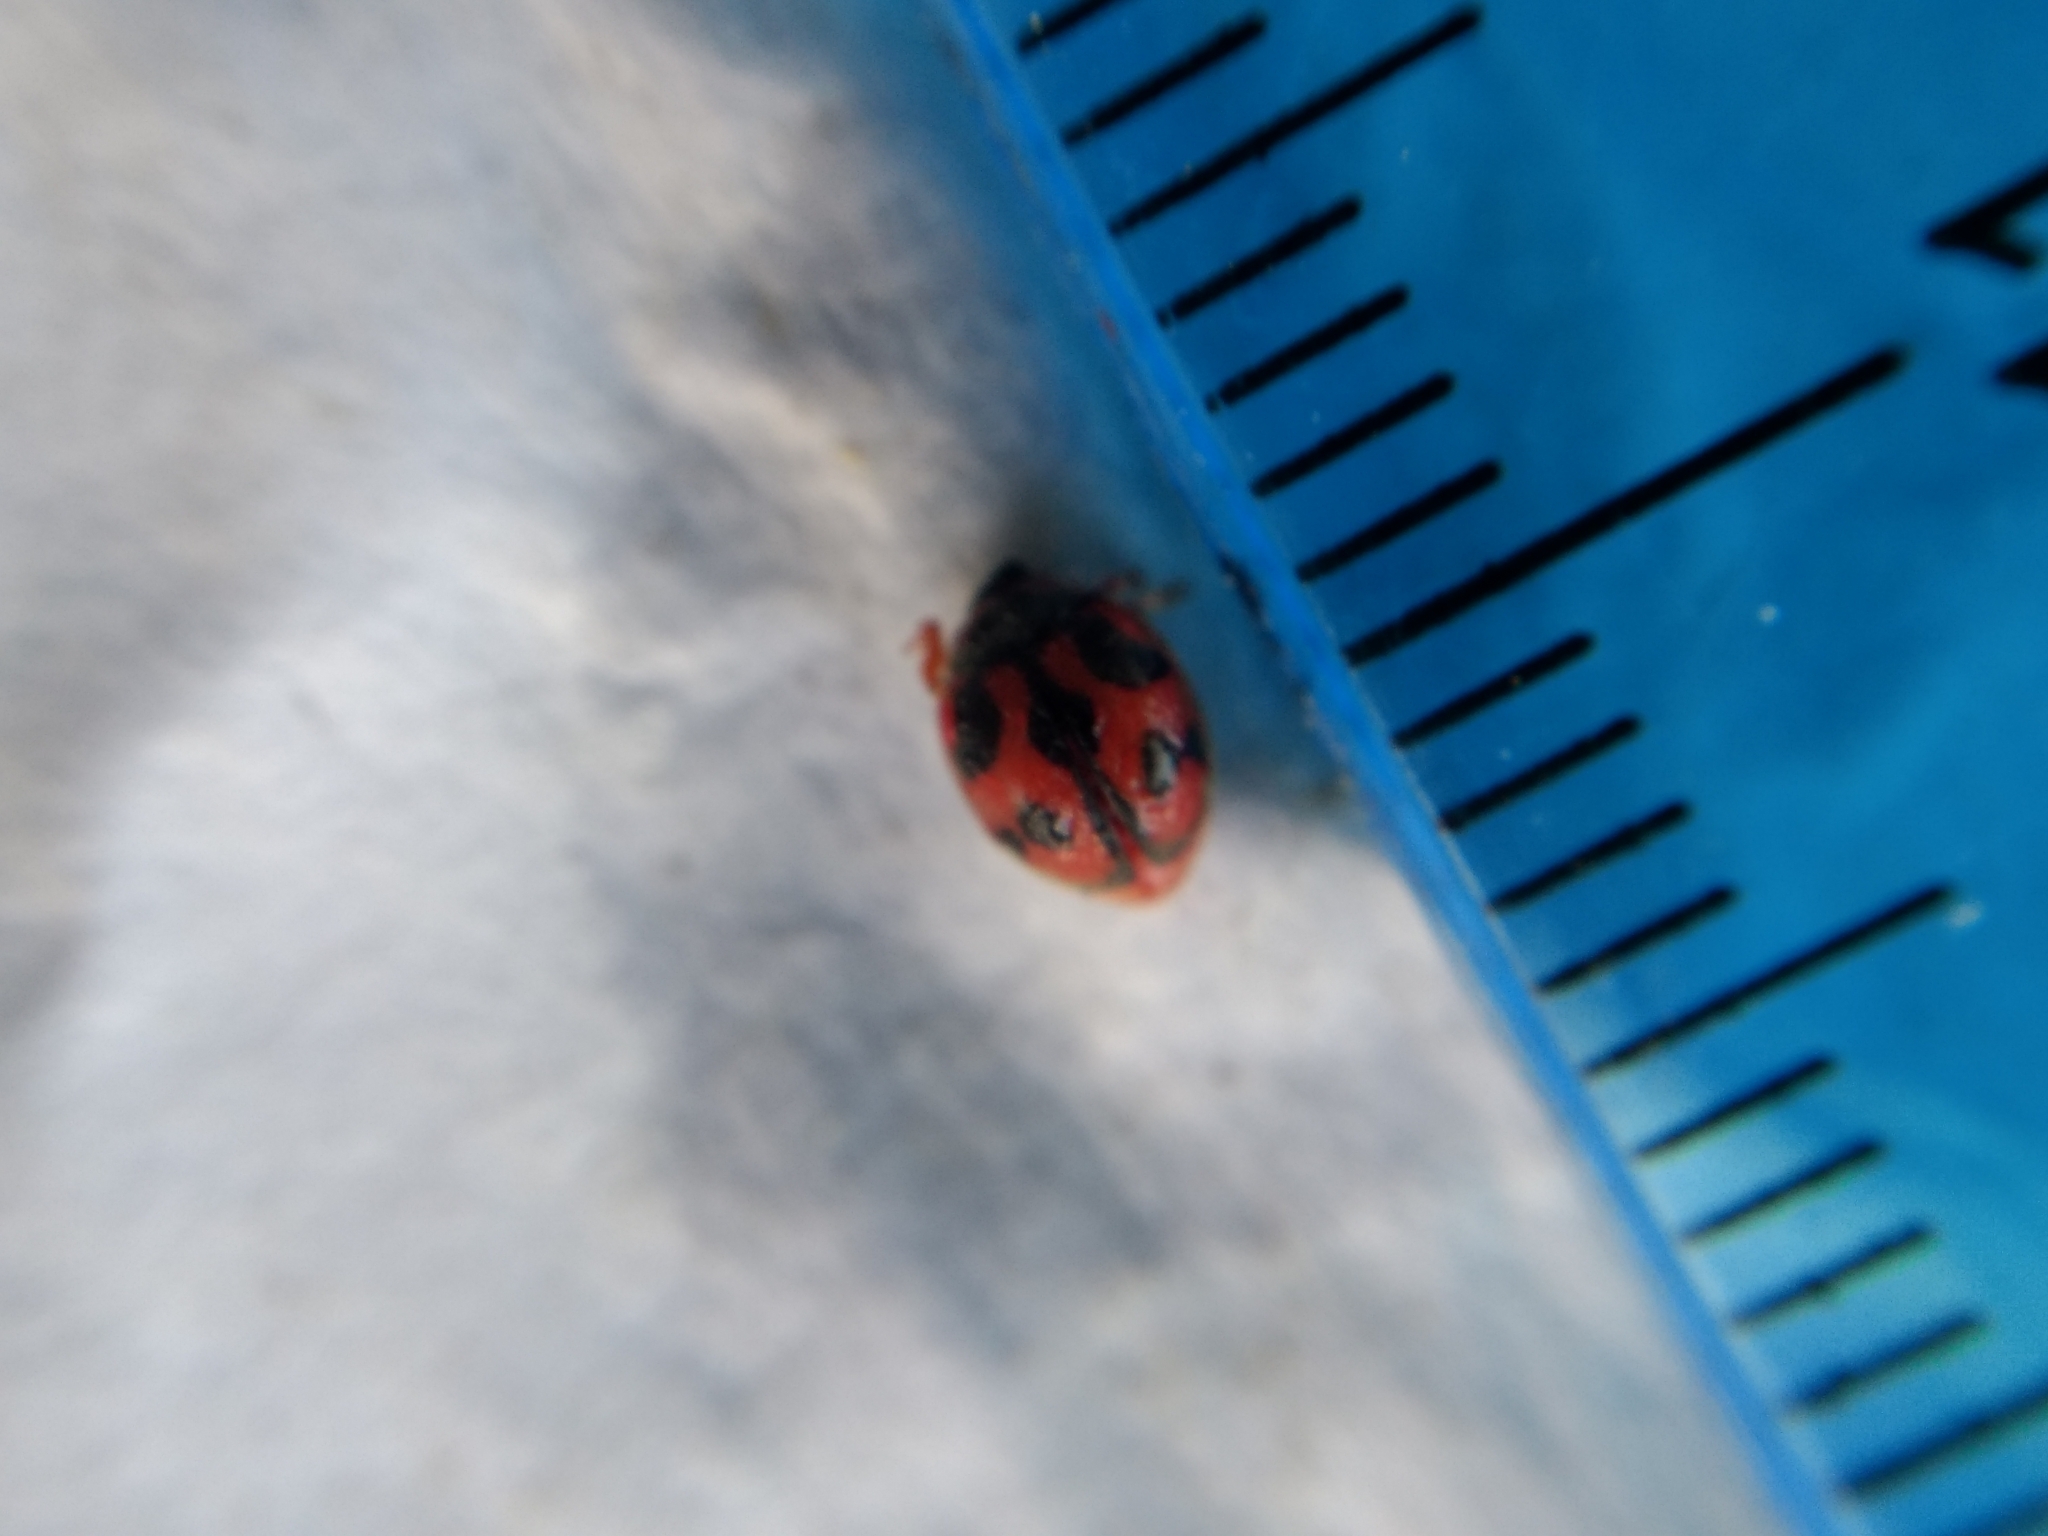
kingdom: Animalia
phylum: Arthropoda
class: Insecta
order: Coleoptera
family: Coccinellidae
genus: Novius
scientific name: Novius cardinalis
